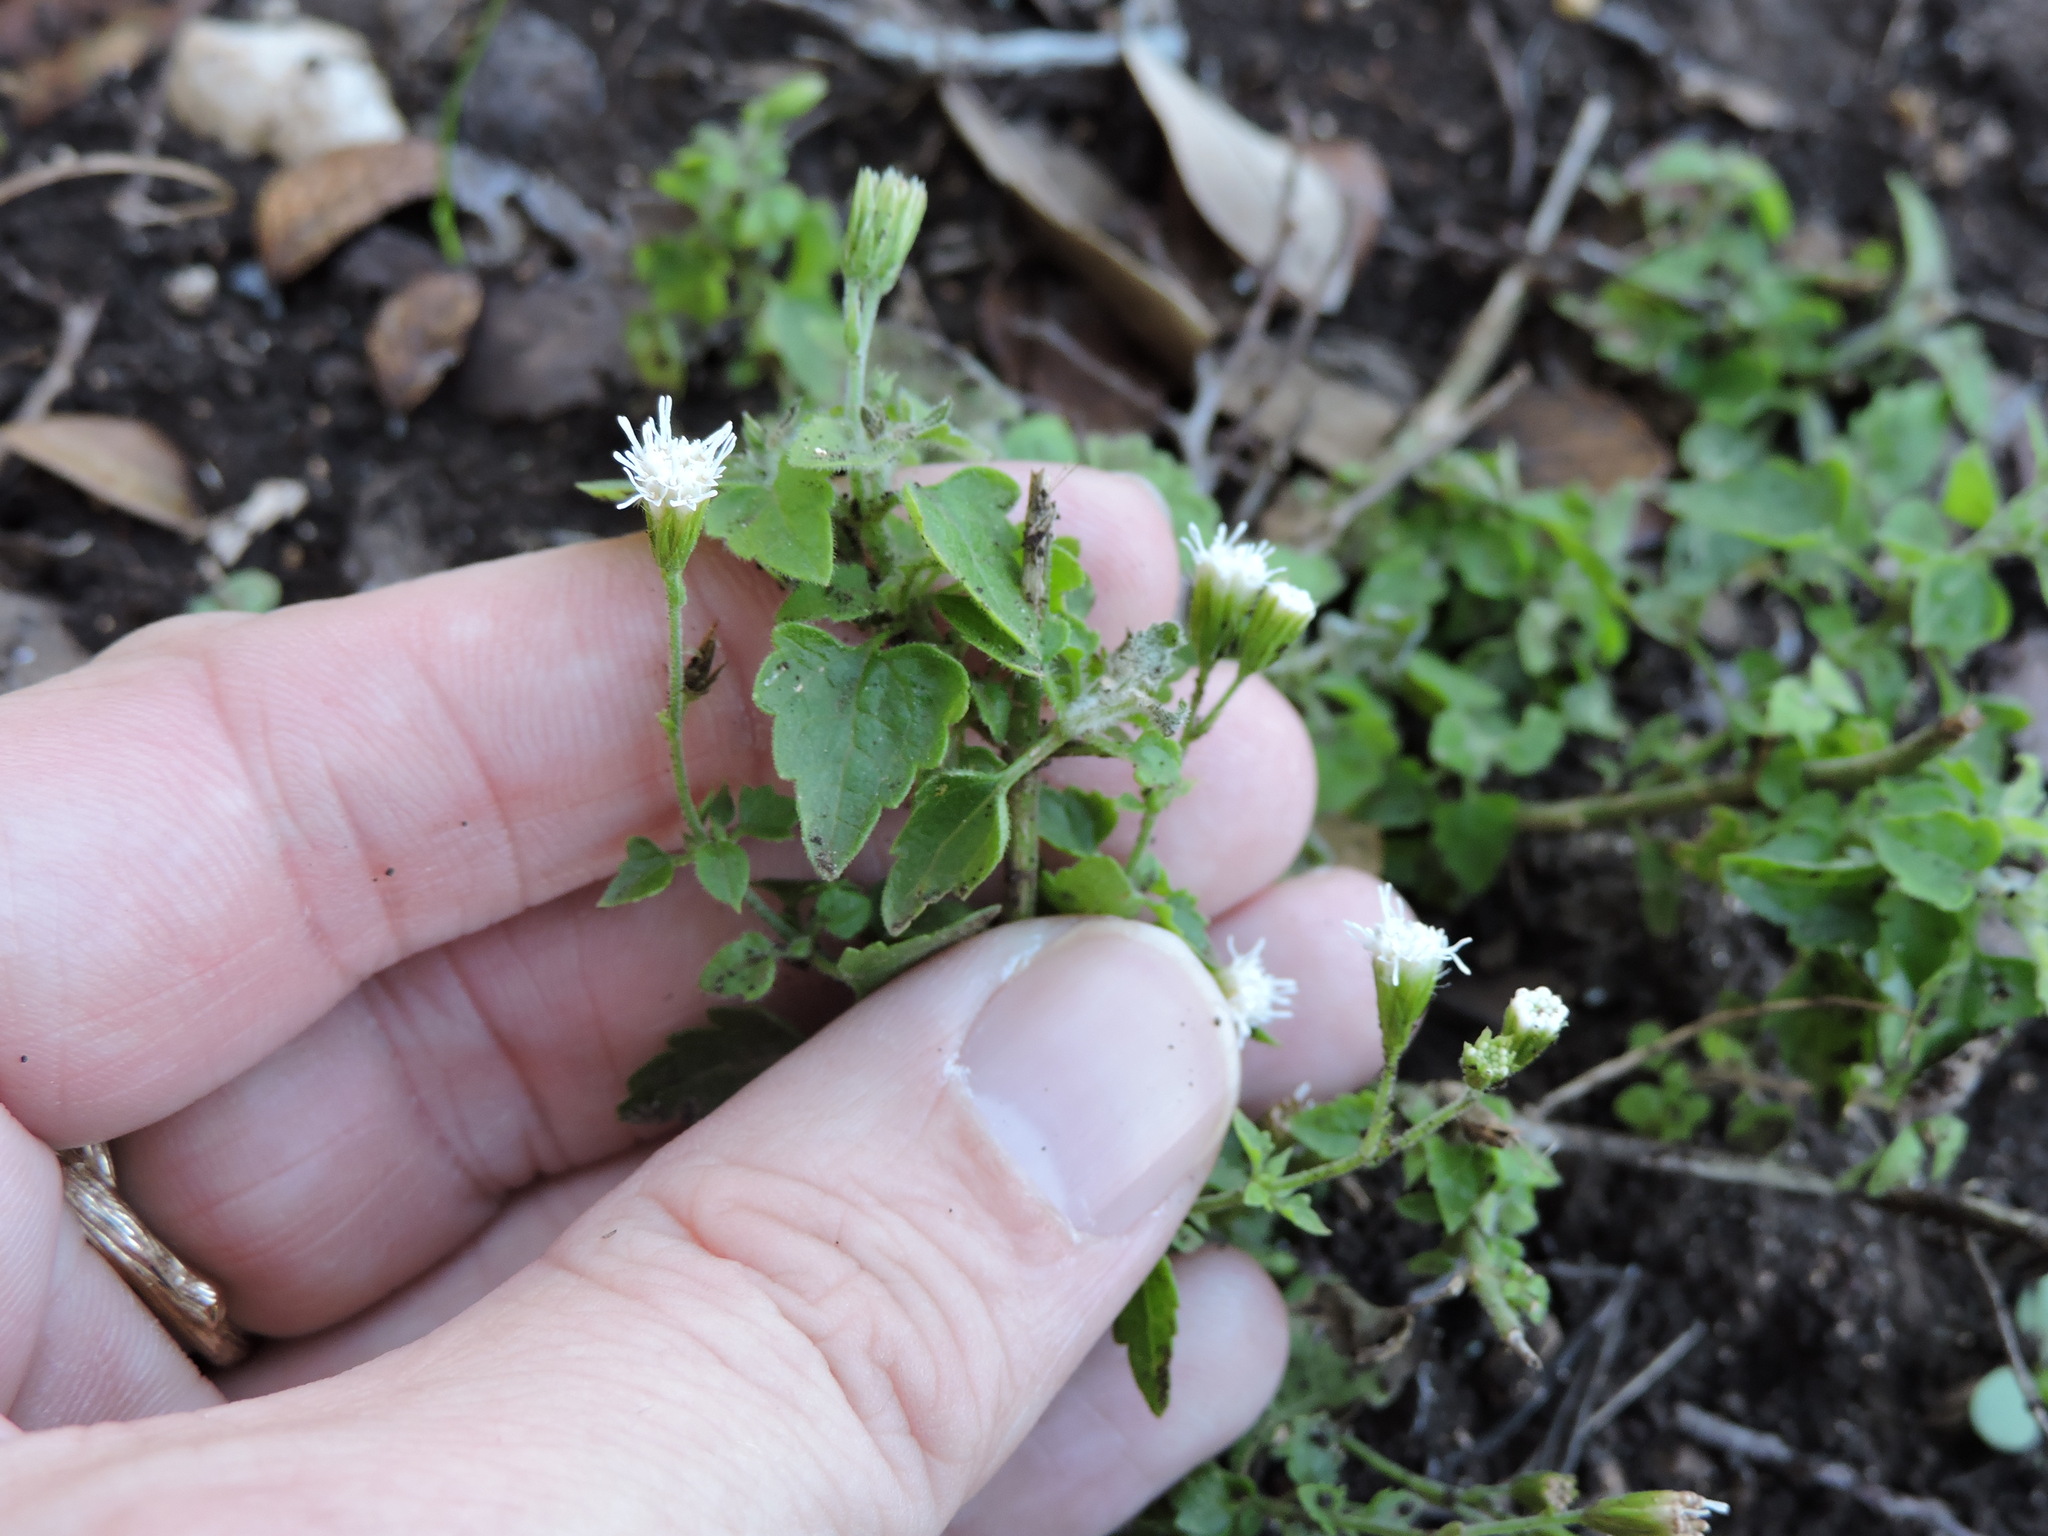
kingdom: Plantae
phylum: Tracheophyta
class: Magnoliopsida
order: Asterales
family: Asteraceae
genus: Ageratina
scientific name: Ageratina havanensis
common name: Havana snakeroot
